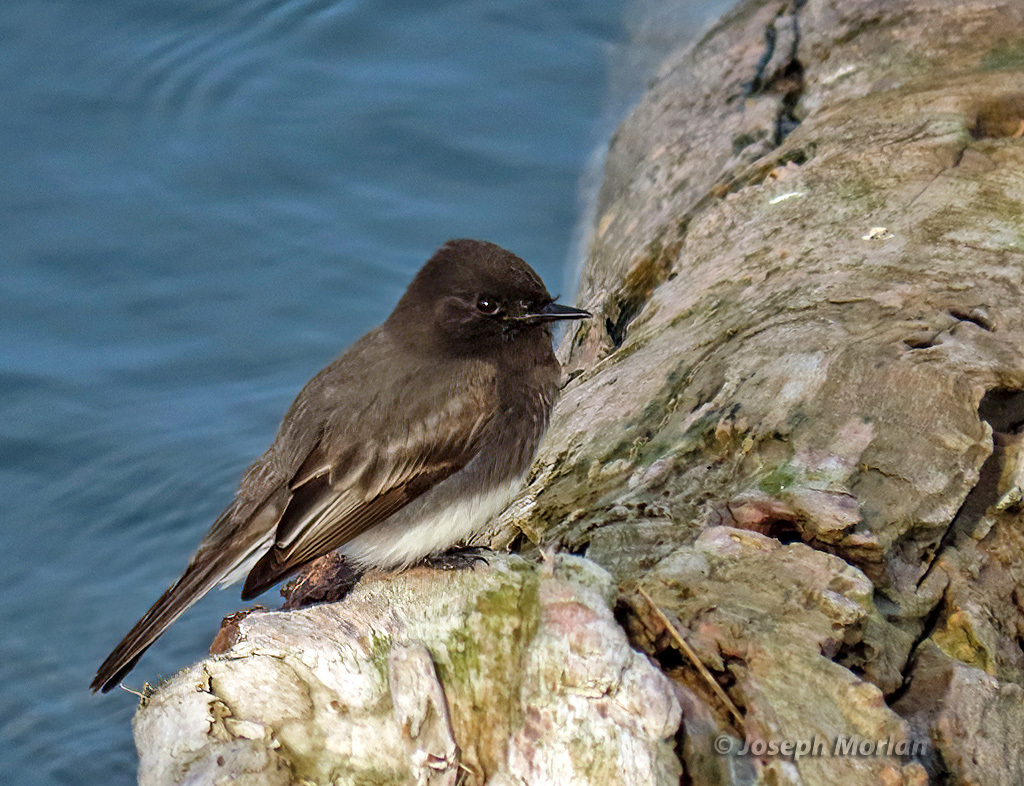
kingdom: Animalia
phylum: Chordata
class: Aves
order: Passeriformes
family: Tyrannidae
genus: Sayornis
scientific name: Sayornis nigricans
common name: Black phoebe
